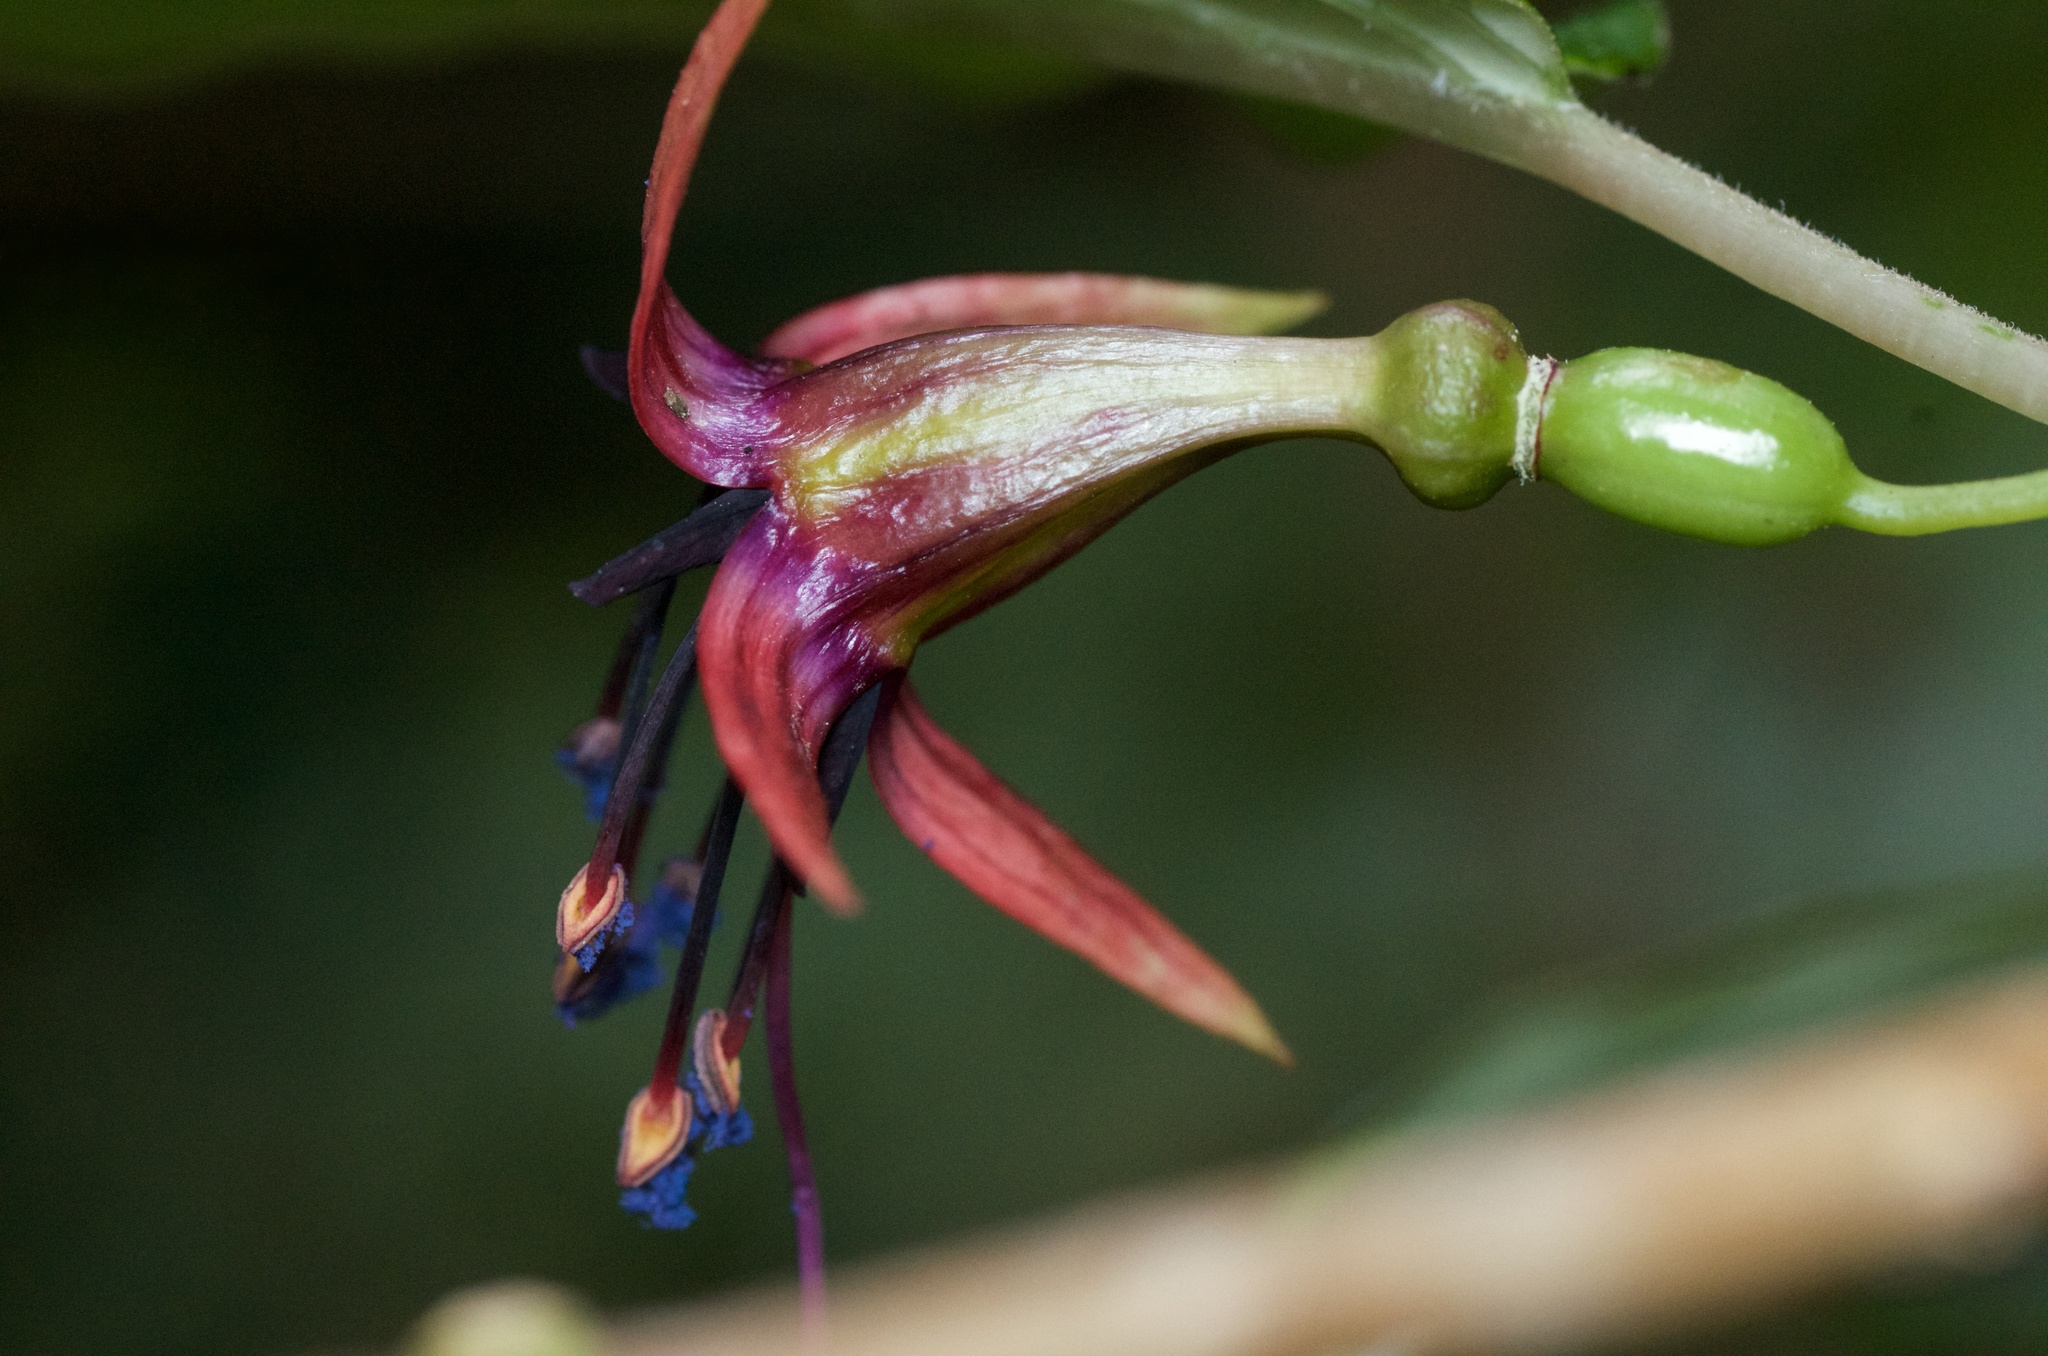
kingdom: Plantae
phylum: Tracheophyta
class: Magnoliopsida
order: Myrtales
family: Onagraceae
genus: Fuchsia
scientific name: Fuchsia excorticata
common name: Tree fuchsia
